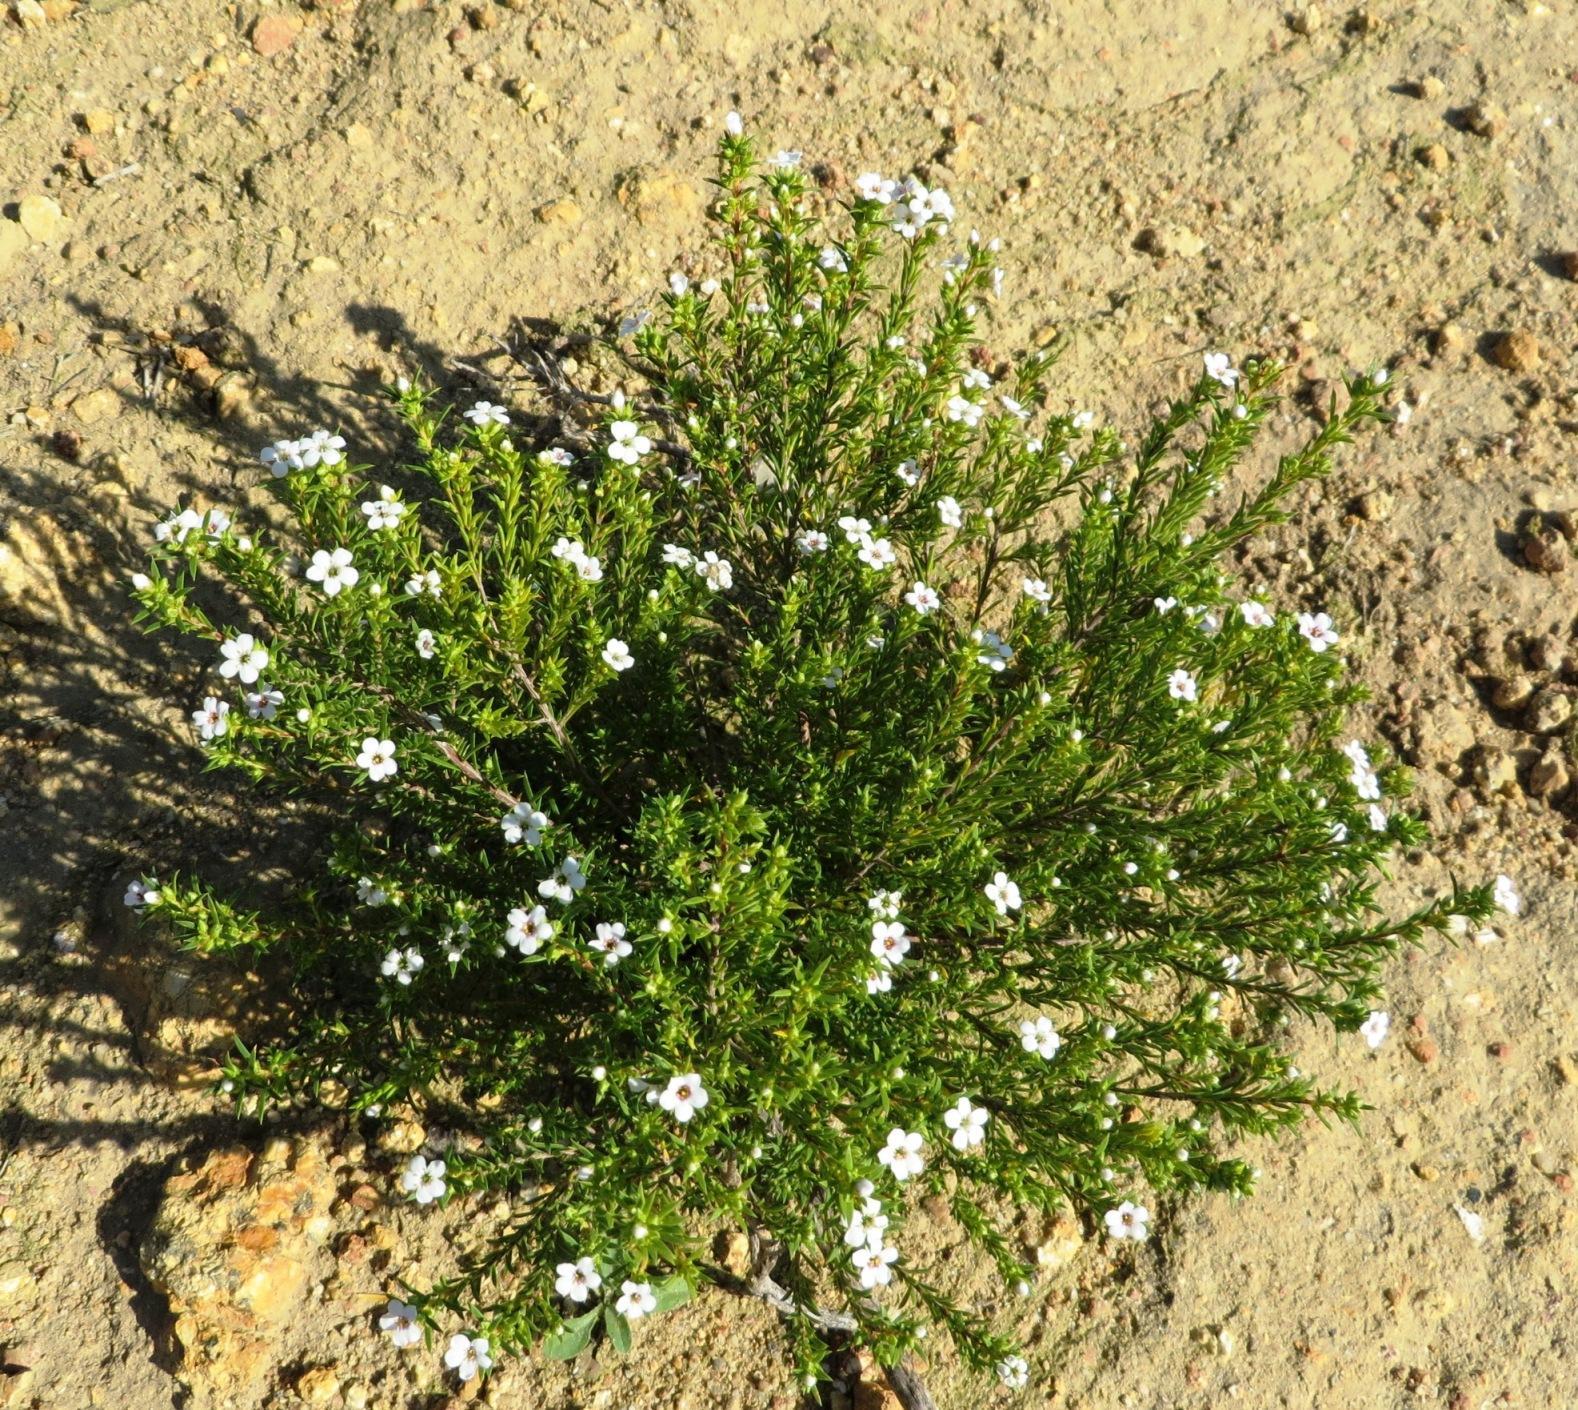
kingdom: Plantae
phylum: Tracheophyta
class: Magnoliopsida
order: Sapindales
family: Rutaceae
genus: Coleonema
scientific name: Coleonema album
